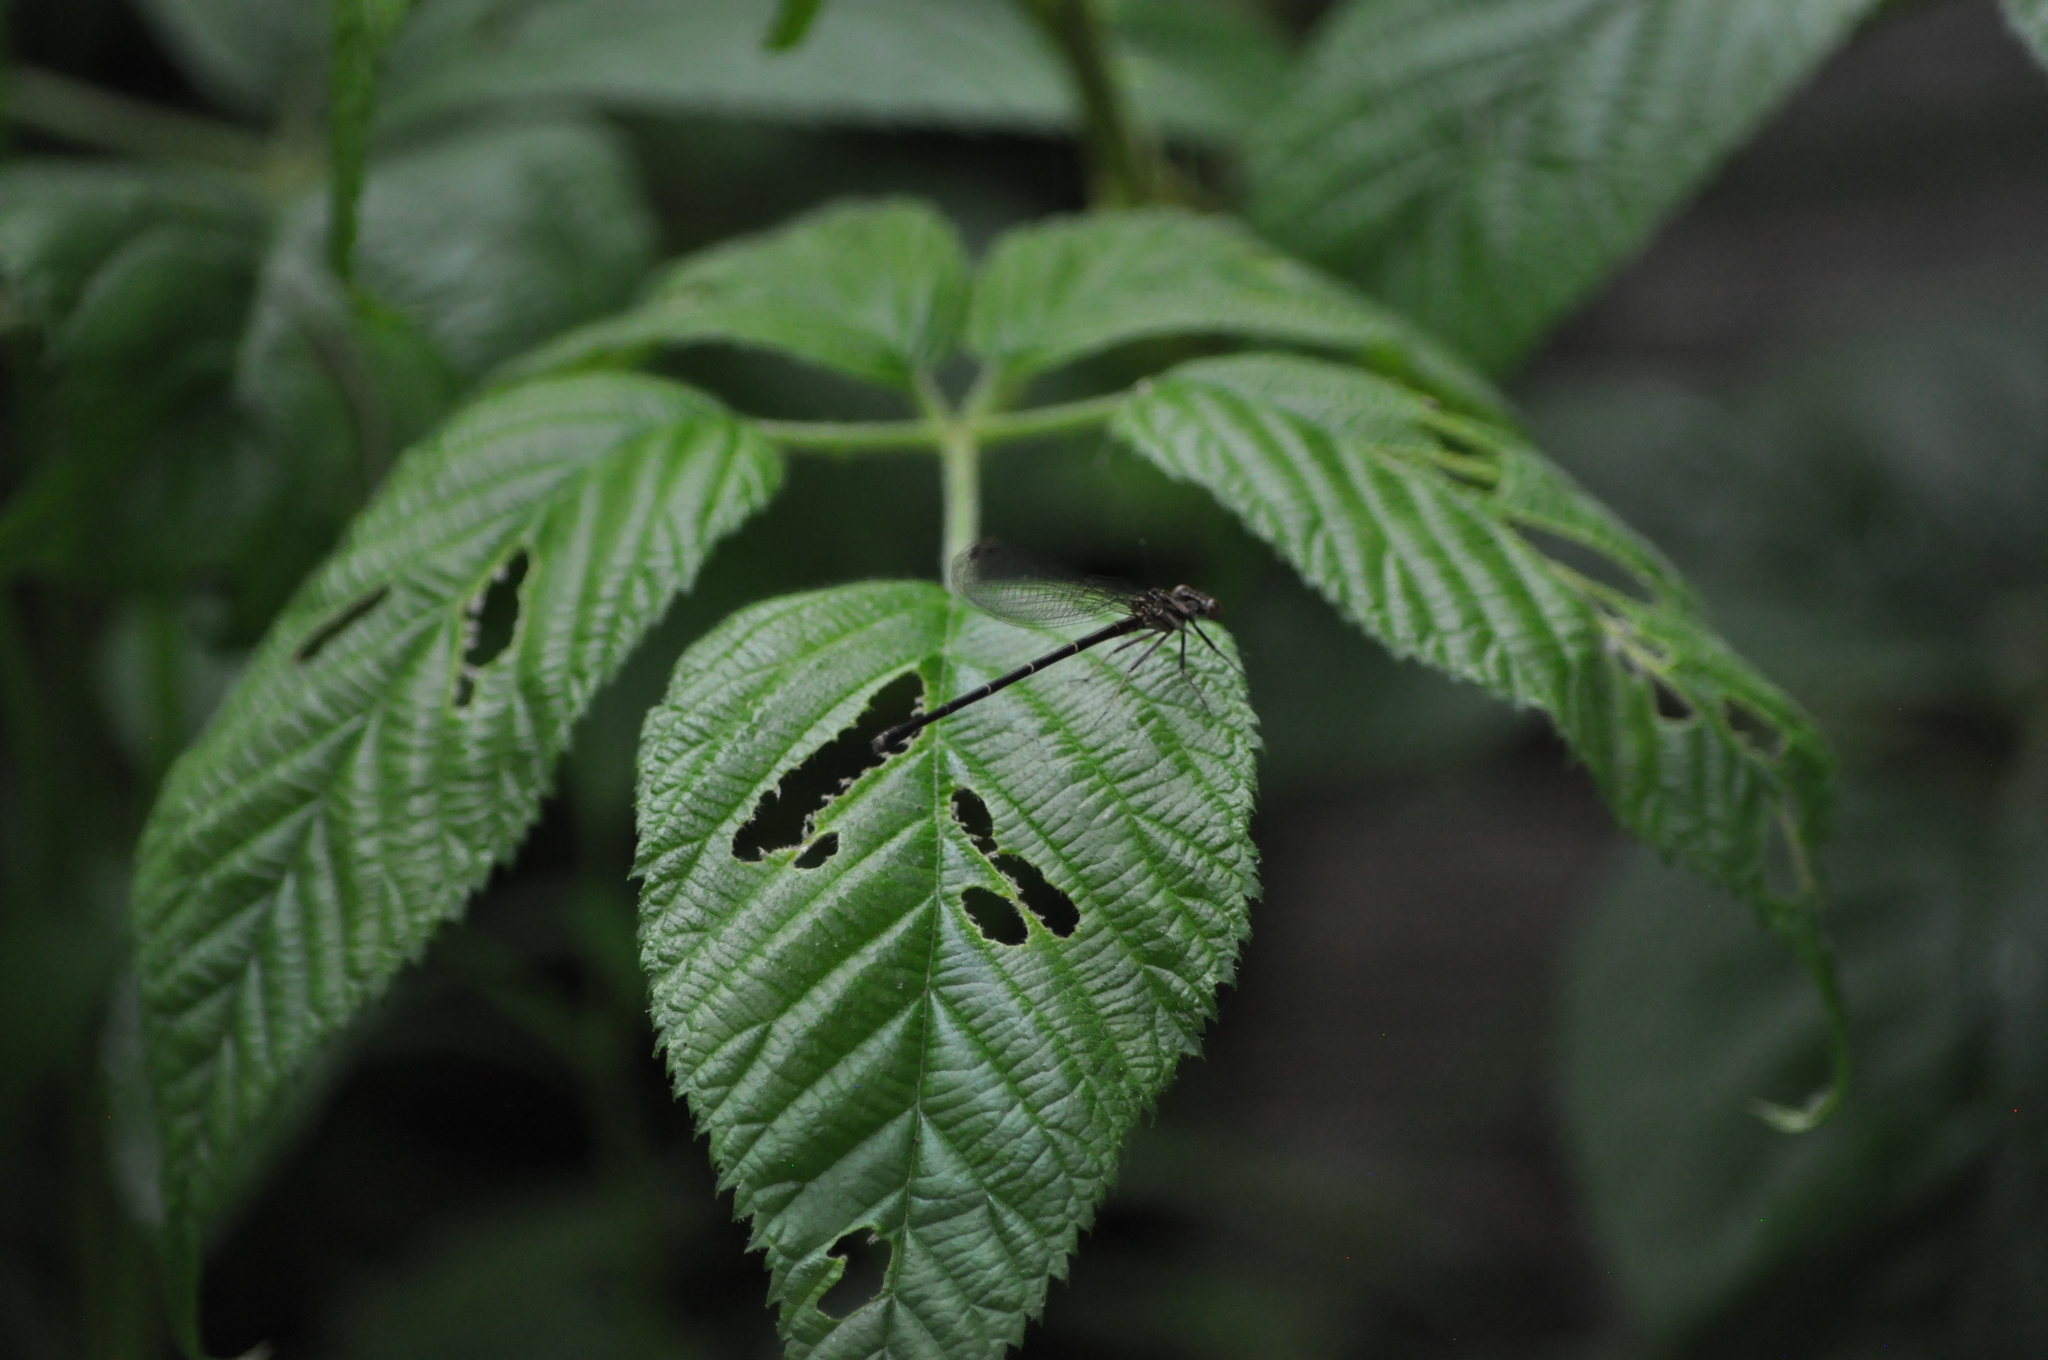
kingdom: Animalia
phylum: Arthropoda
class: Insecta
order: Odonata
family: Coenagrionidae
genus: Argia
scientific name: Argia tibialis
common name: Blue-tipped dancer
